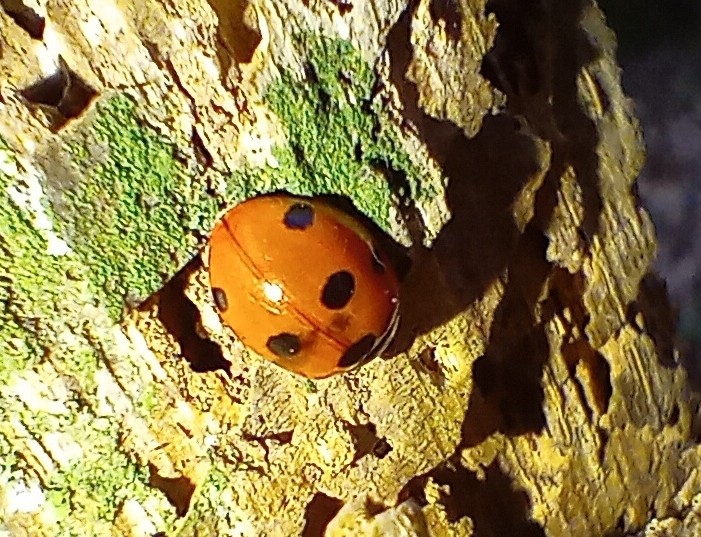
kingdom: Animalia
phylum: Arthropoda
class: Insecta
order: Coleoptera
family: Coccinellidae
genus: Coccinella
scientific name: Coccinella septempunctata
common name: Sevenspotted lady beetle
